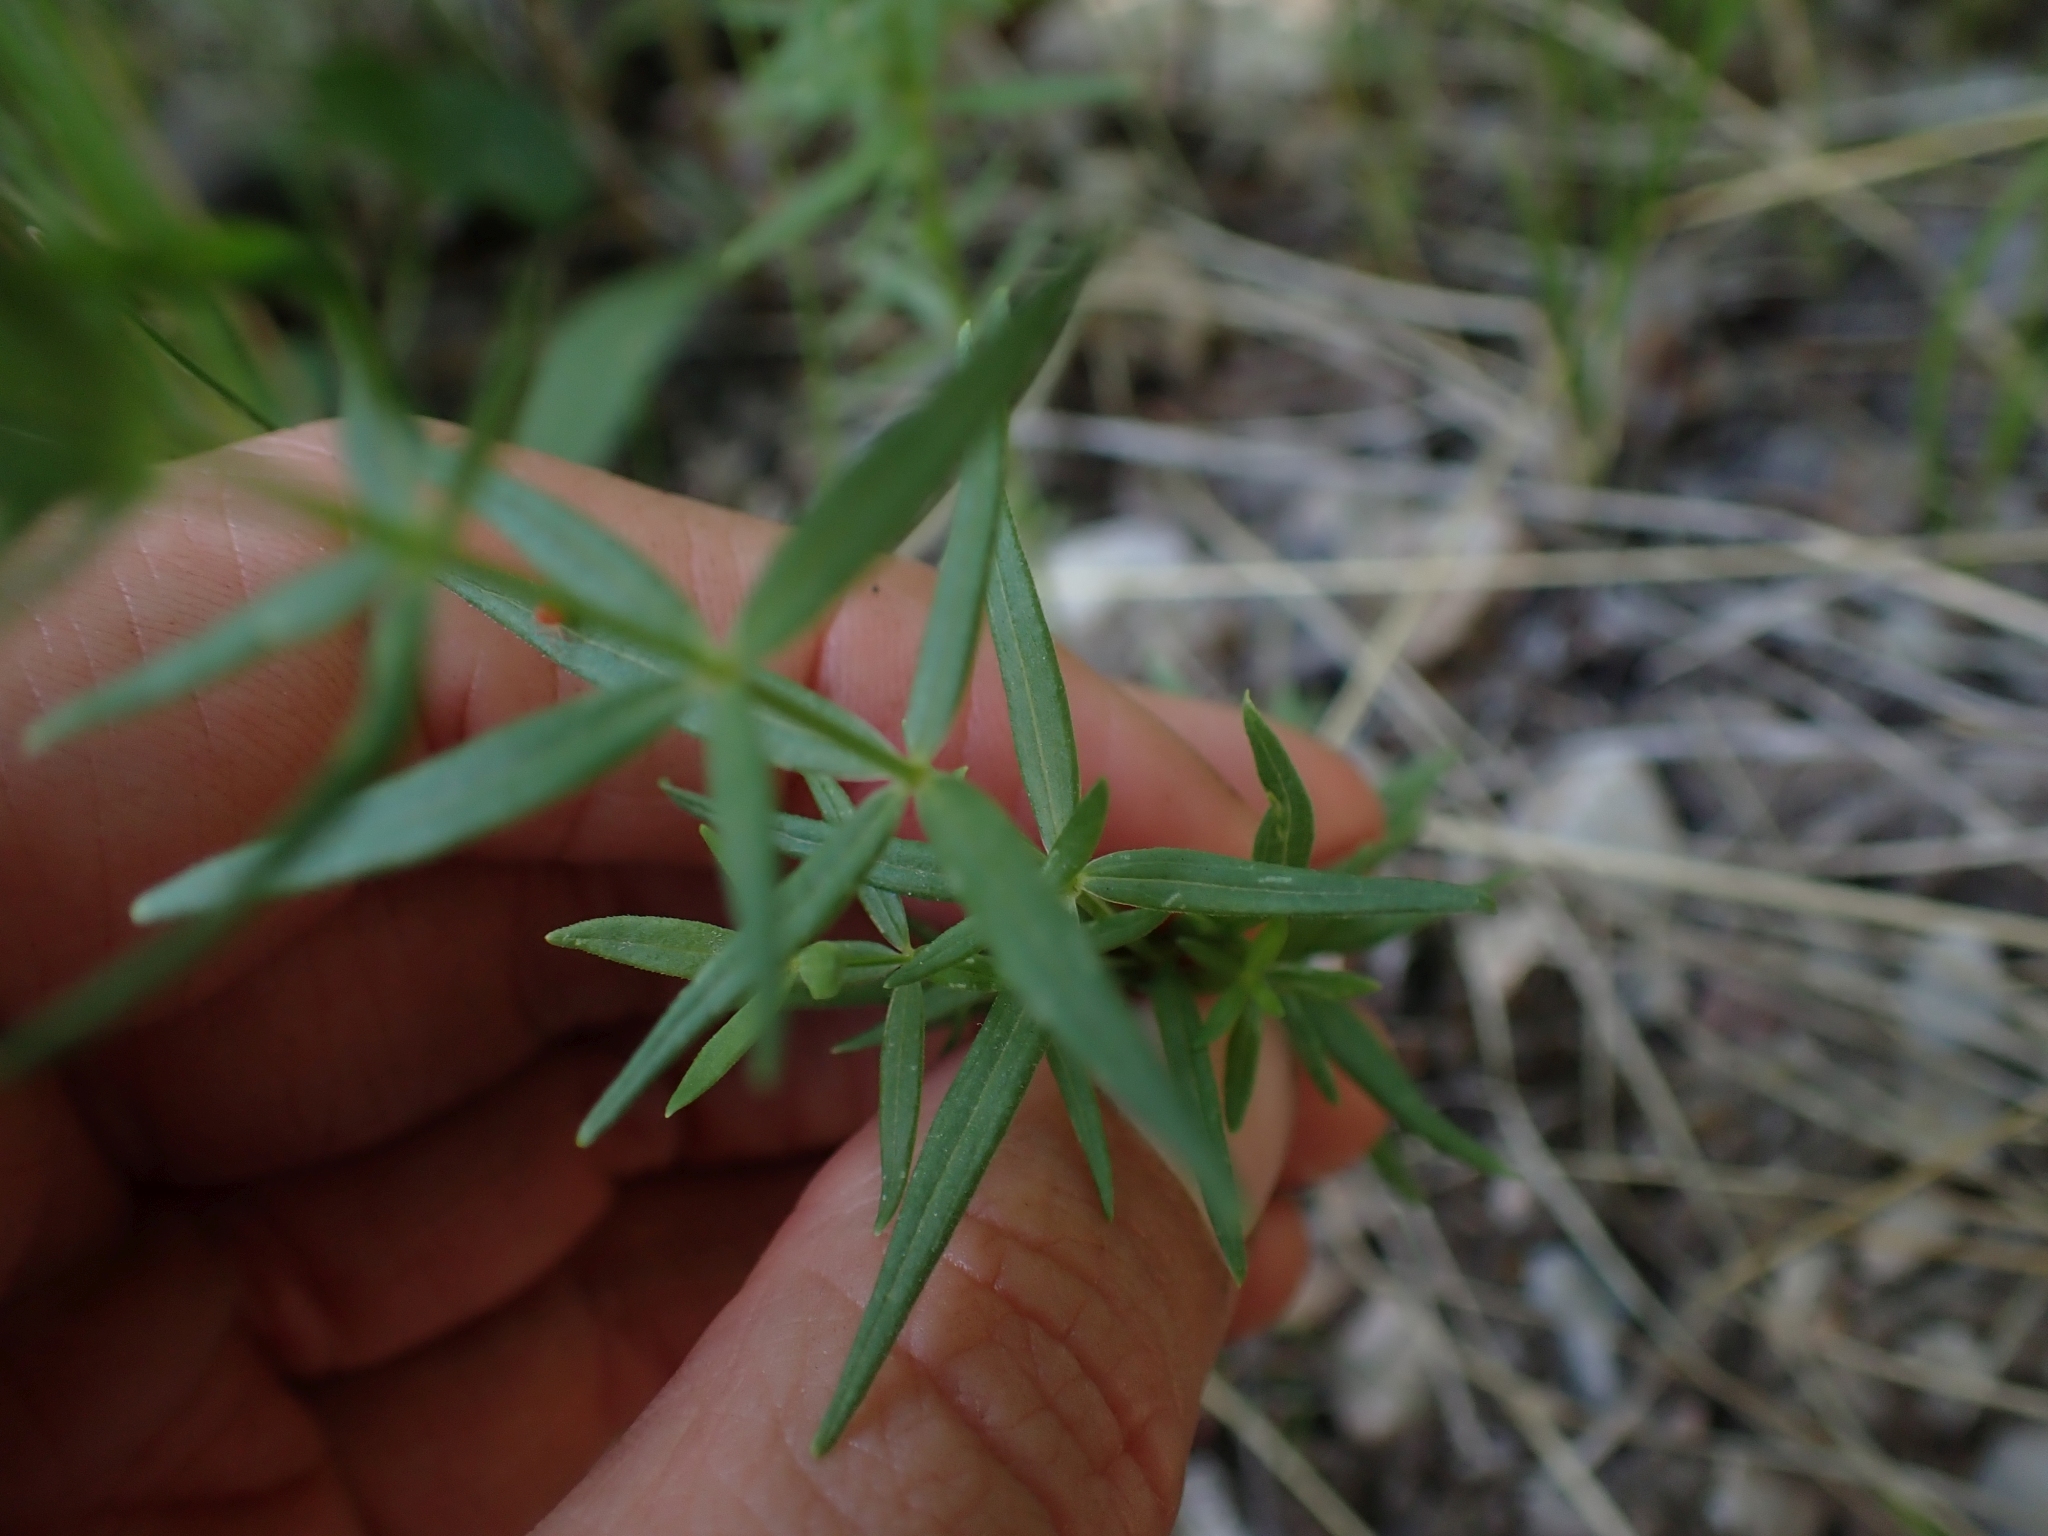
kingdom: Plantae
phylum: Tracheophyta
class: Magnoliopsida
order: Gentianales
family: Rubiaceae
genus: Galium
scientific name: Galium boreale
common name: Northern bedstraw
